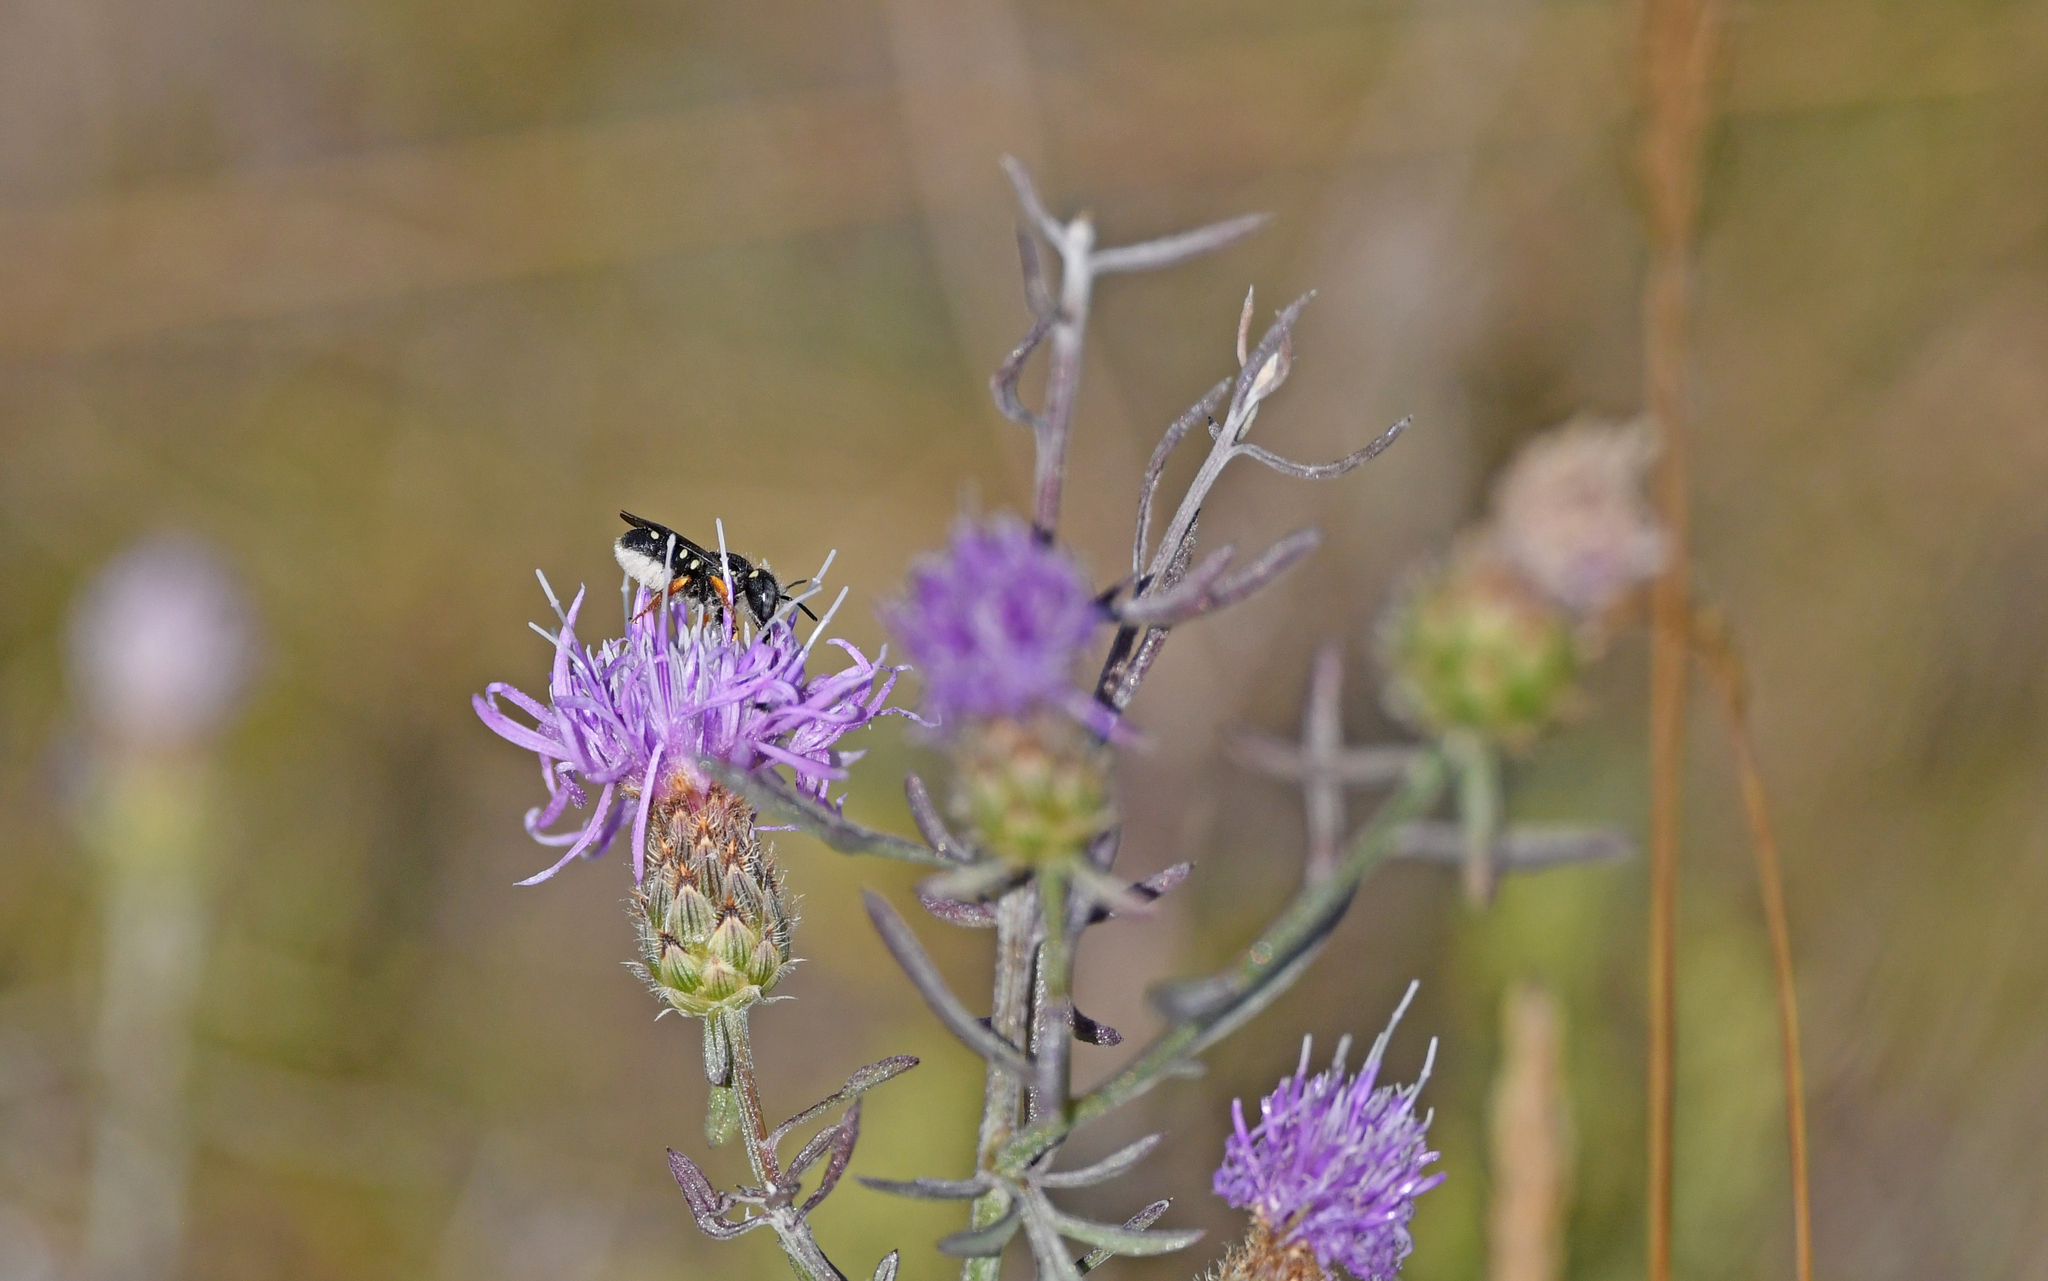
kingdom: Animalia
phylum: Arthropoda
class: Insecta
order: Hymenoptera
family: Megachilidae
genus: Pseudoanthidium
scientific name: Pseudoanthidium nanum
